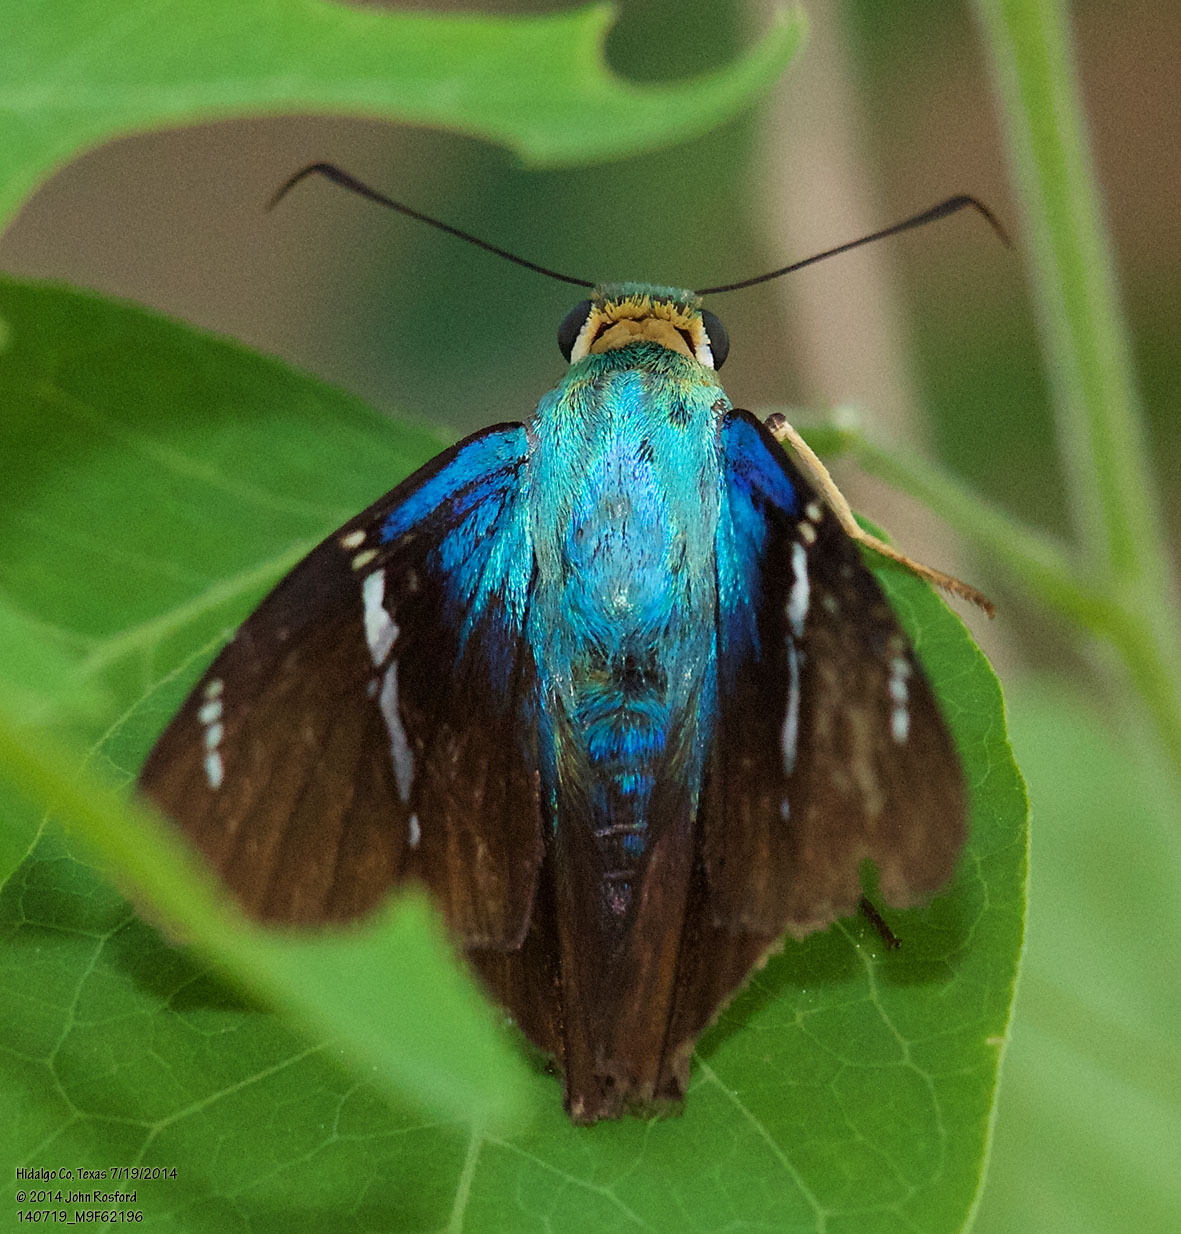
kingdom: Animalia
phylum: Arthropoda
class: Insecta
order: Lepidoptera
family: Hesperiidae
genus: Astraptes
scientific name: Astraptes fulgerator
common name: Two-barred flasher
